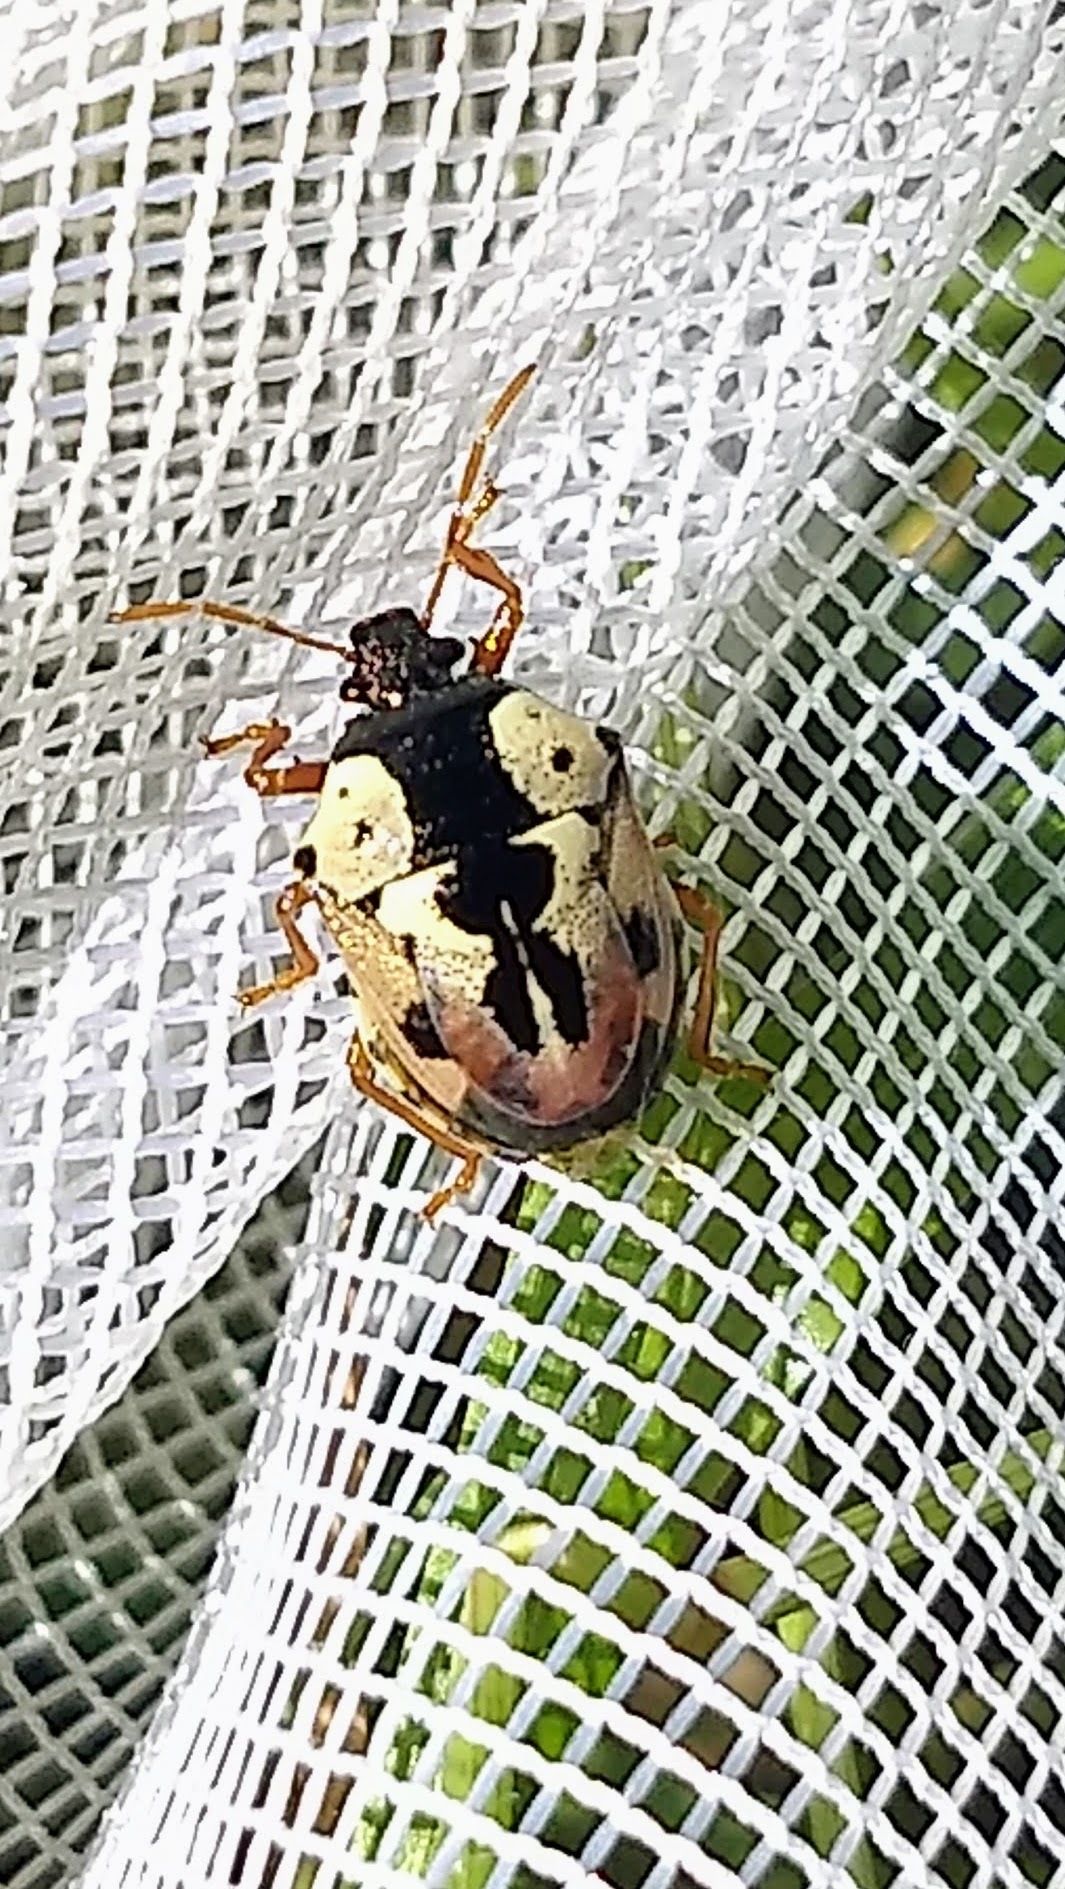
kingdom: Animalia
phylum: Arthropoda
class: Insecta
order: Hemiptera
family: Pentatomidae
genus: Stiretrus
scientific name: Stiretrus anchorago
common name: Anchor stink bug
